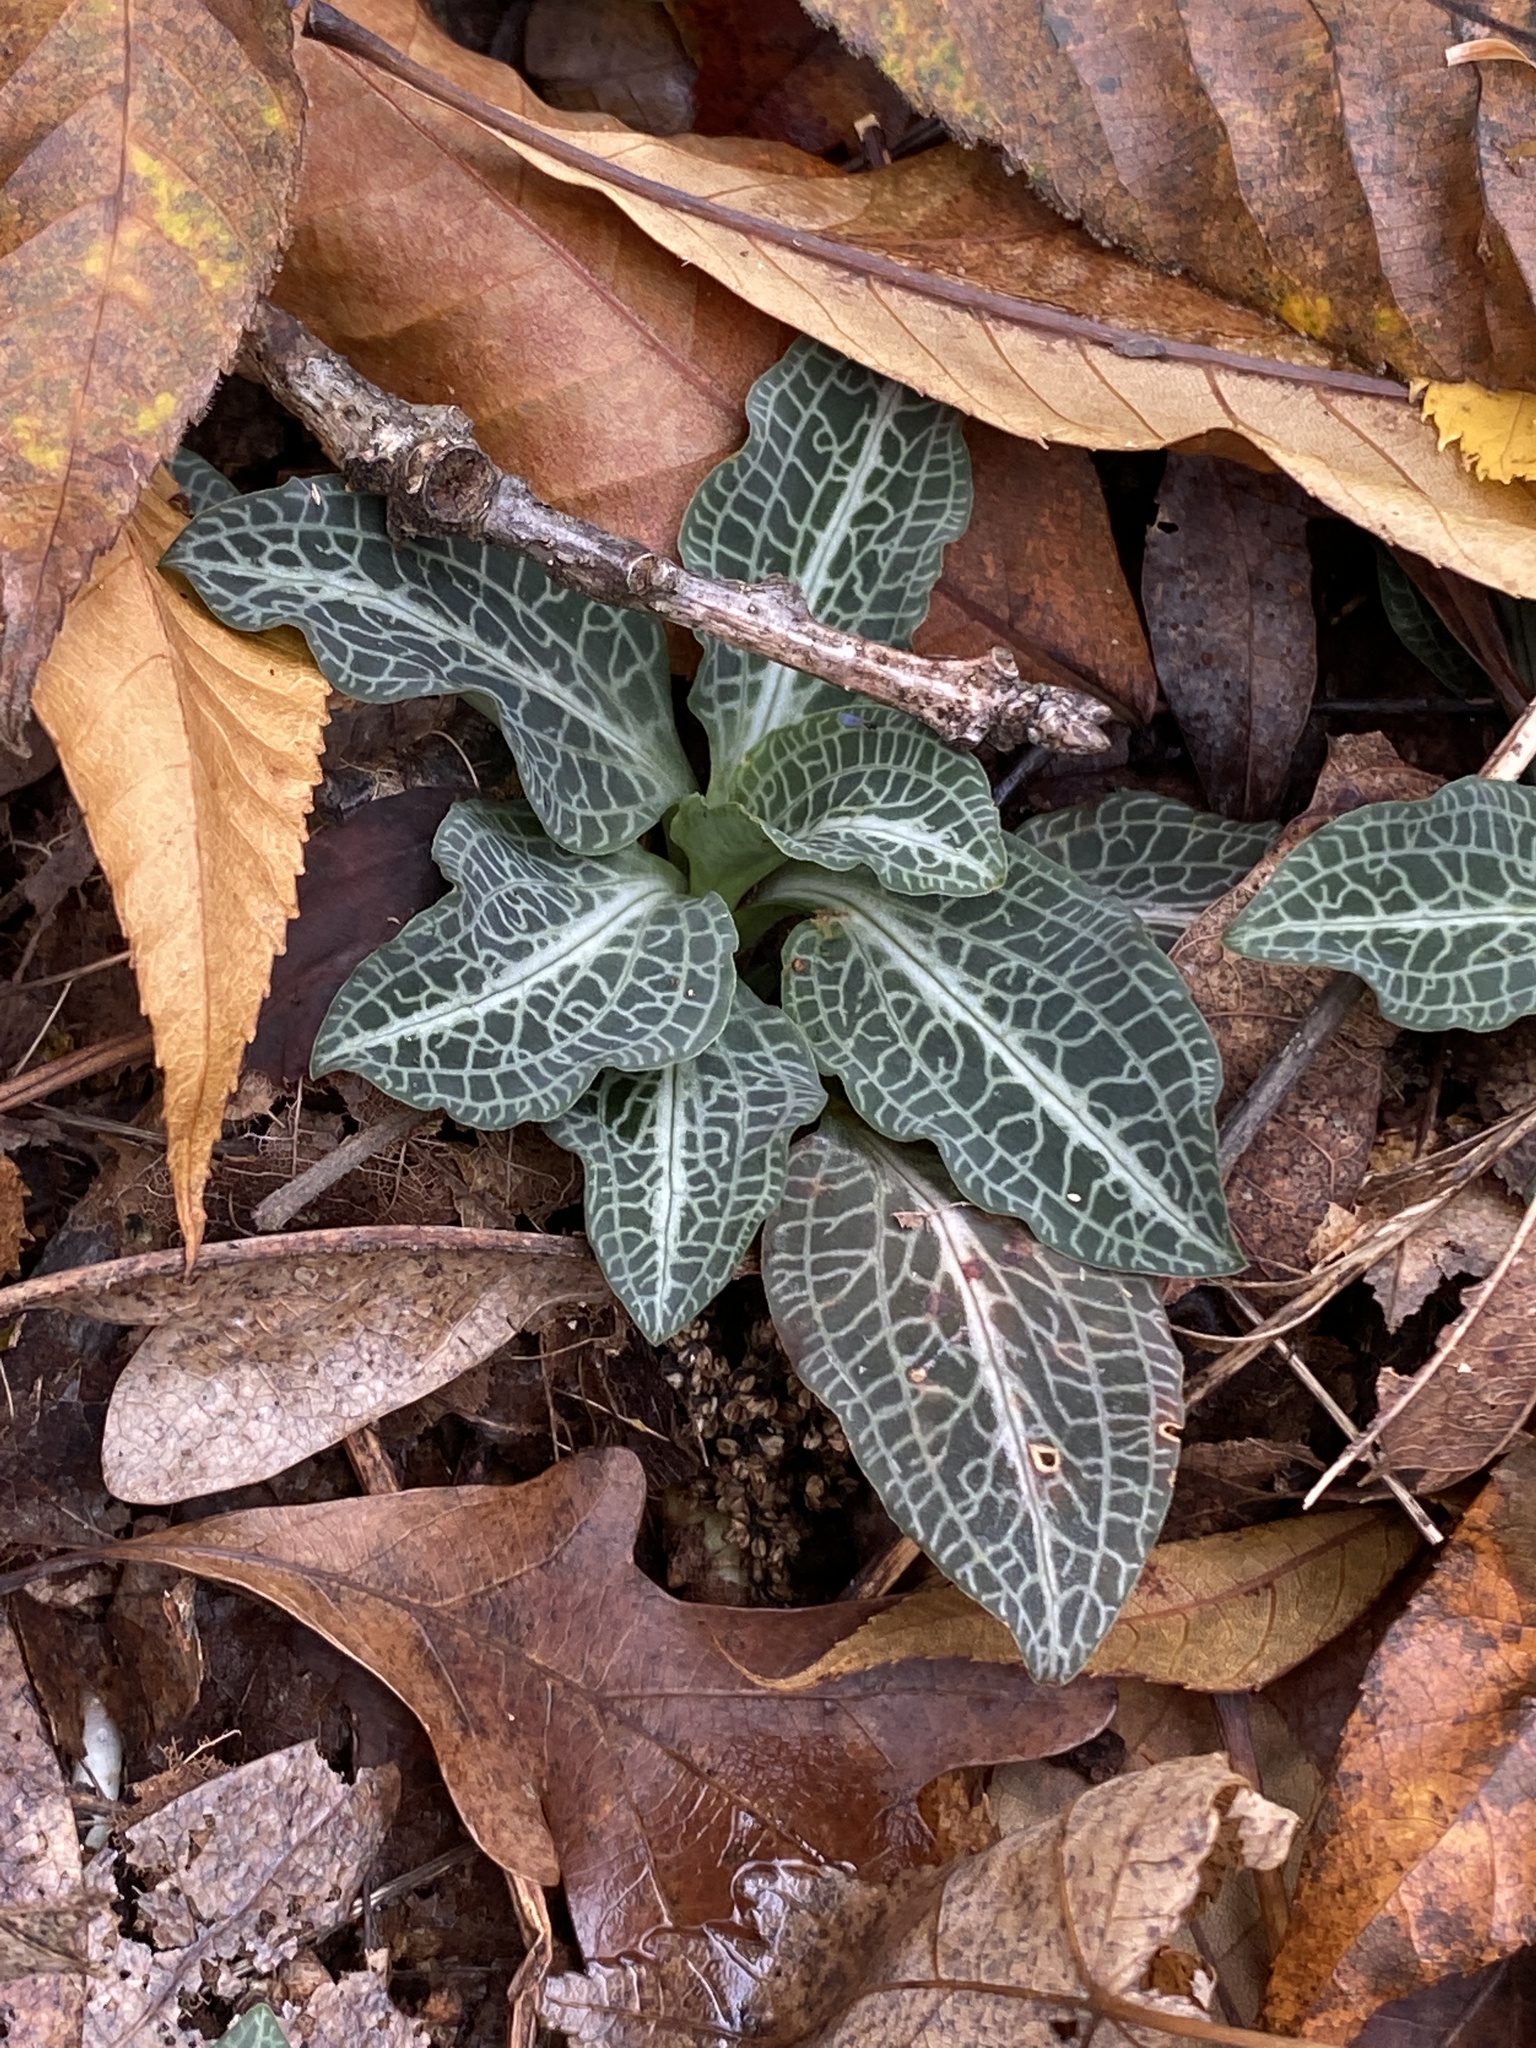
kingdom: Plantae
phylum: Tracheophyta
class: Liliopsida
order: Asparagales
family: Orchidaceae
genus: Goodyera
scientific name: Goodyera pubescens
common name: Downy rattlesnake-plantain
